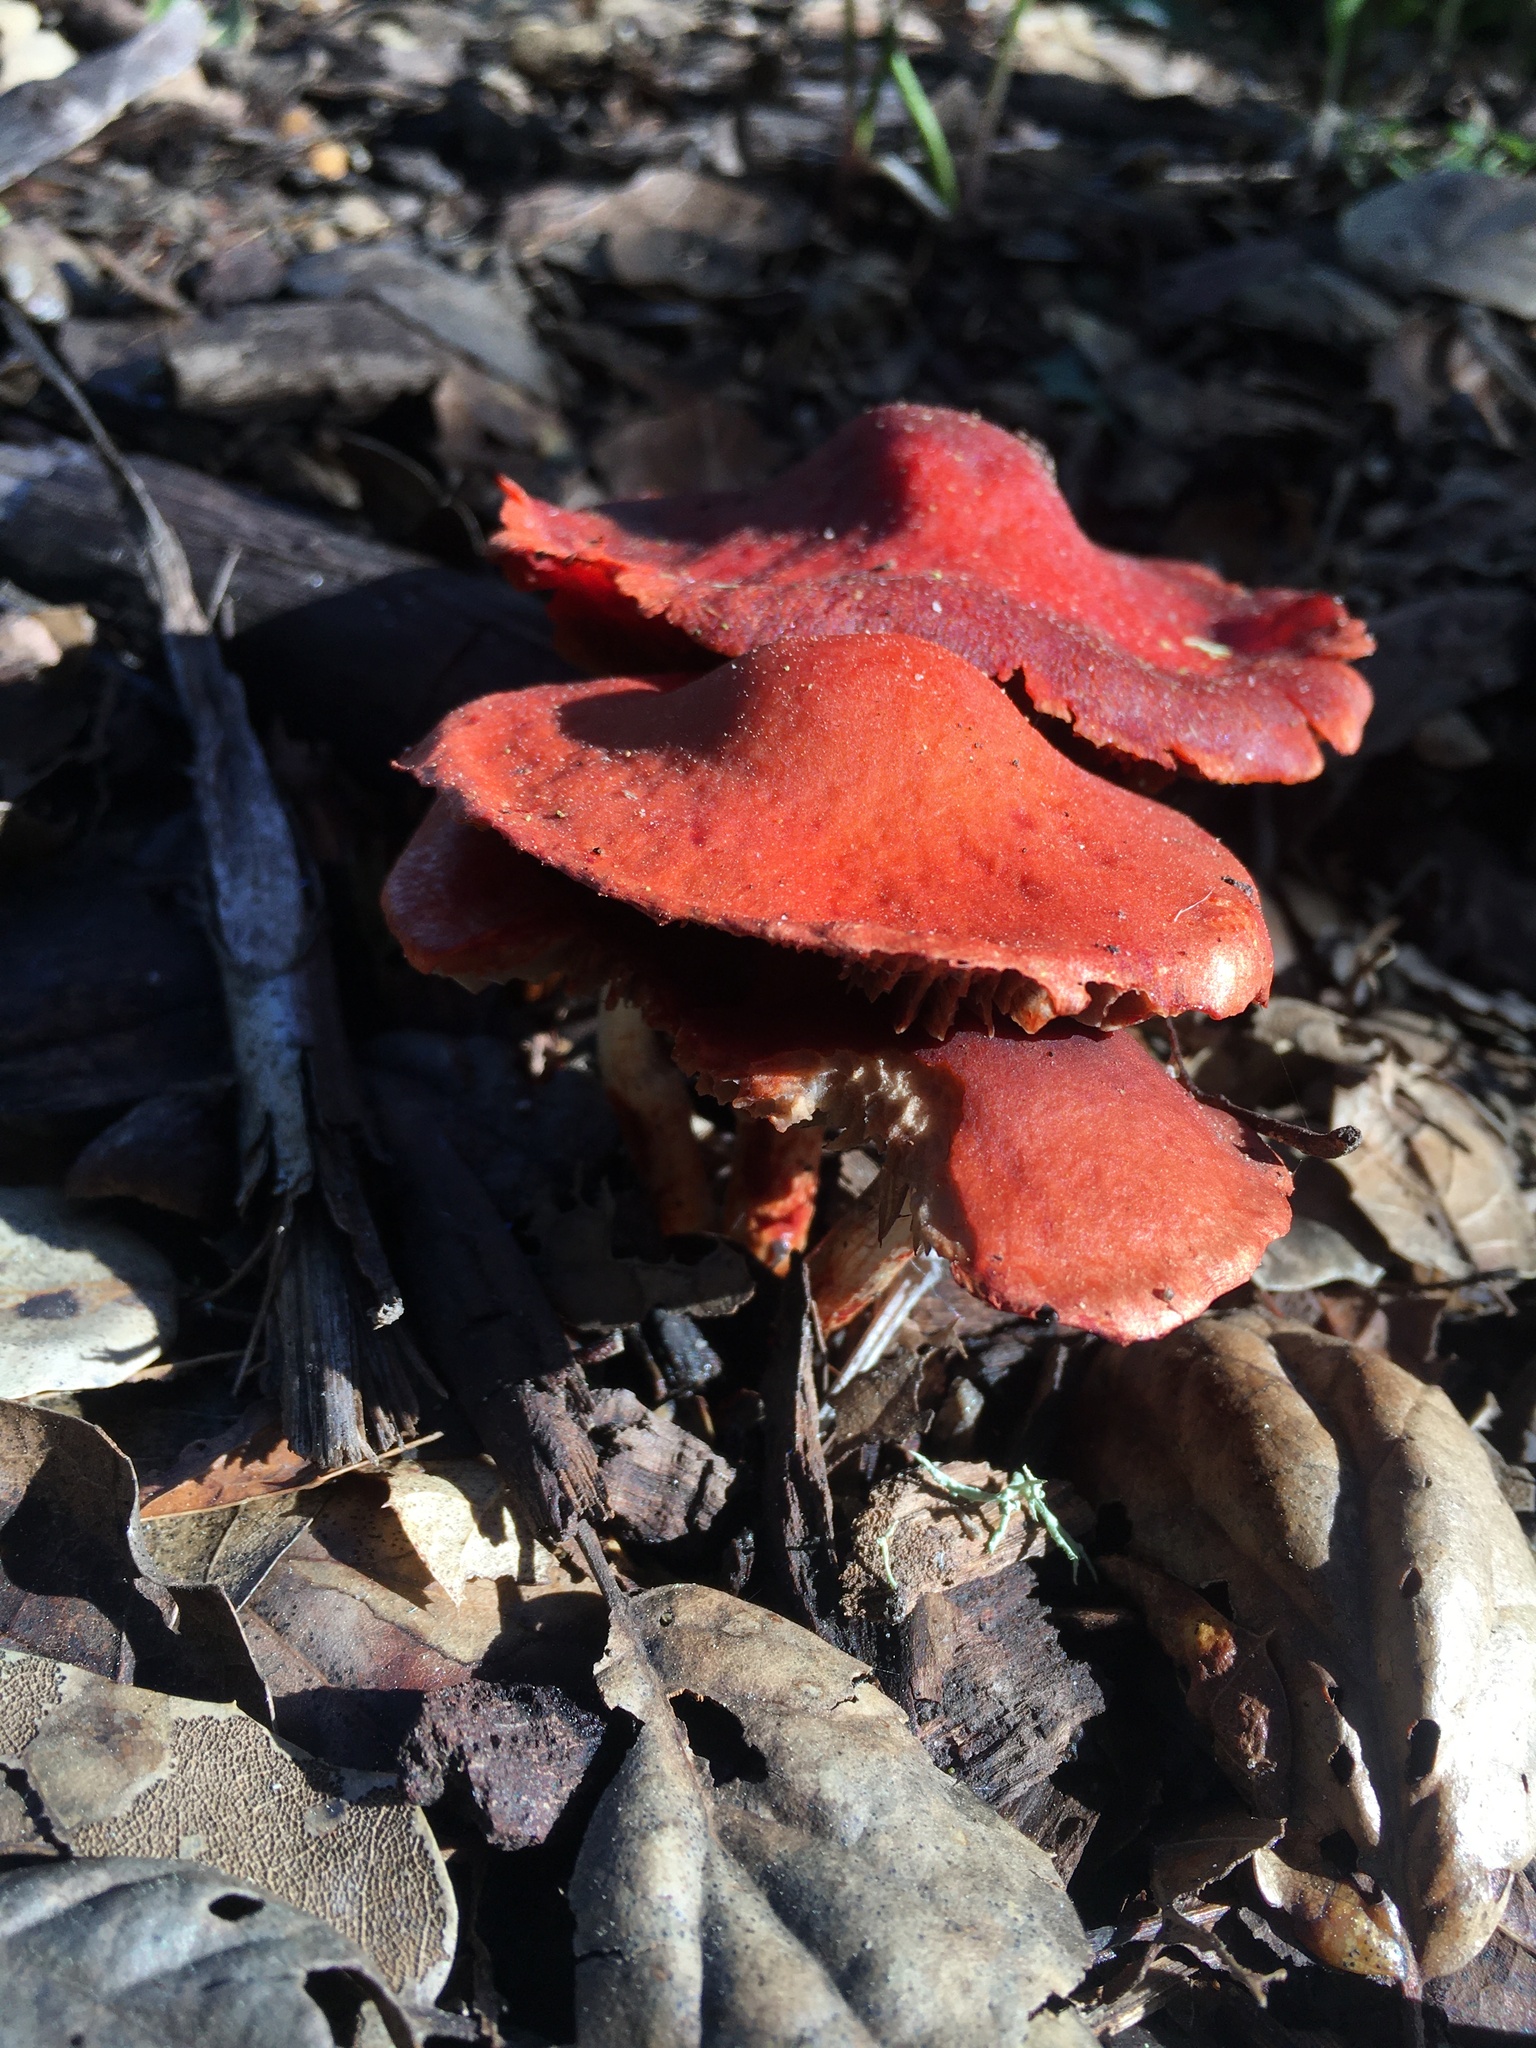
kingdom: Fungi
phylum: Basidiomycota
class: Agaricomycetes
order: Agaricales
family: Strophariaceae
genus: Leratiomyces
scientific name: Leratiomyces ceres
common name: Redlead roundhead
